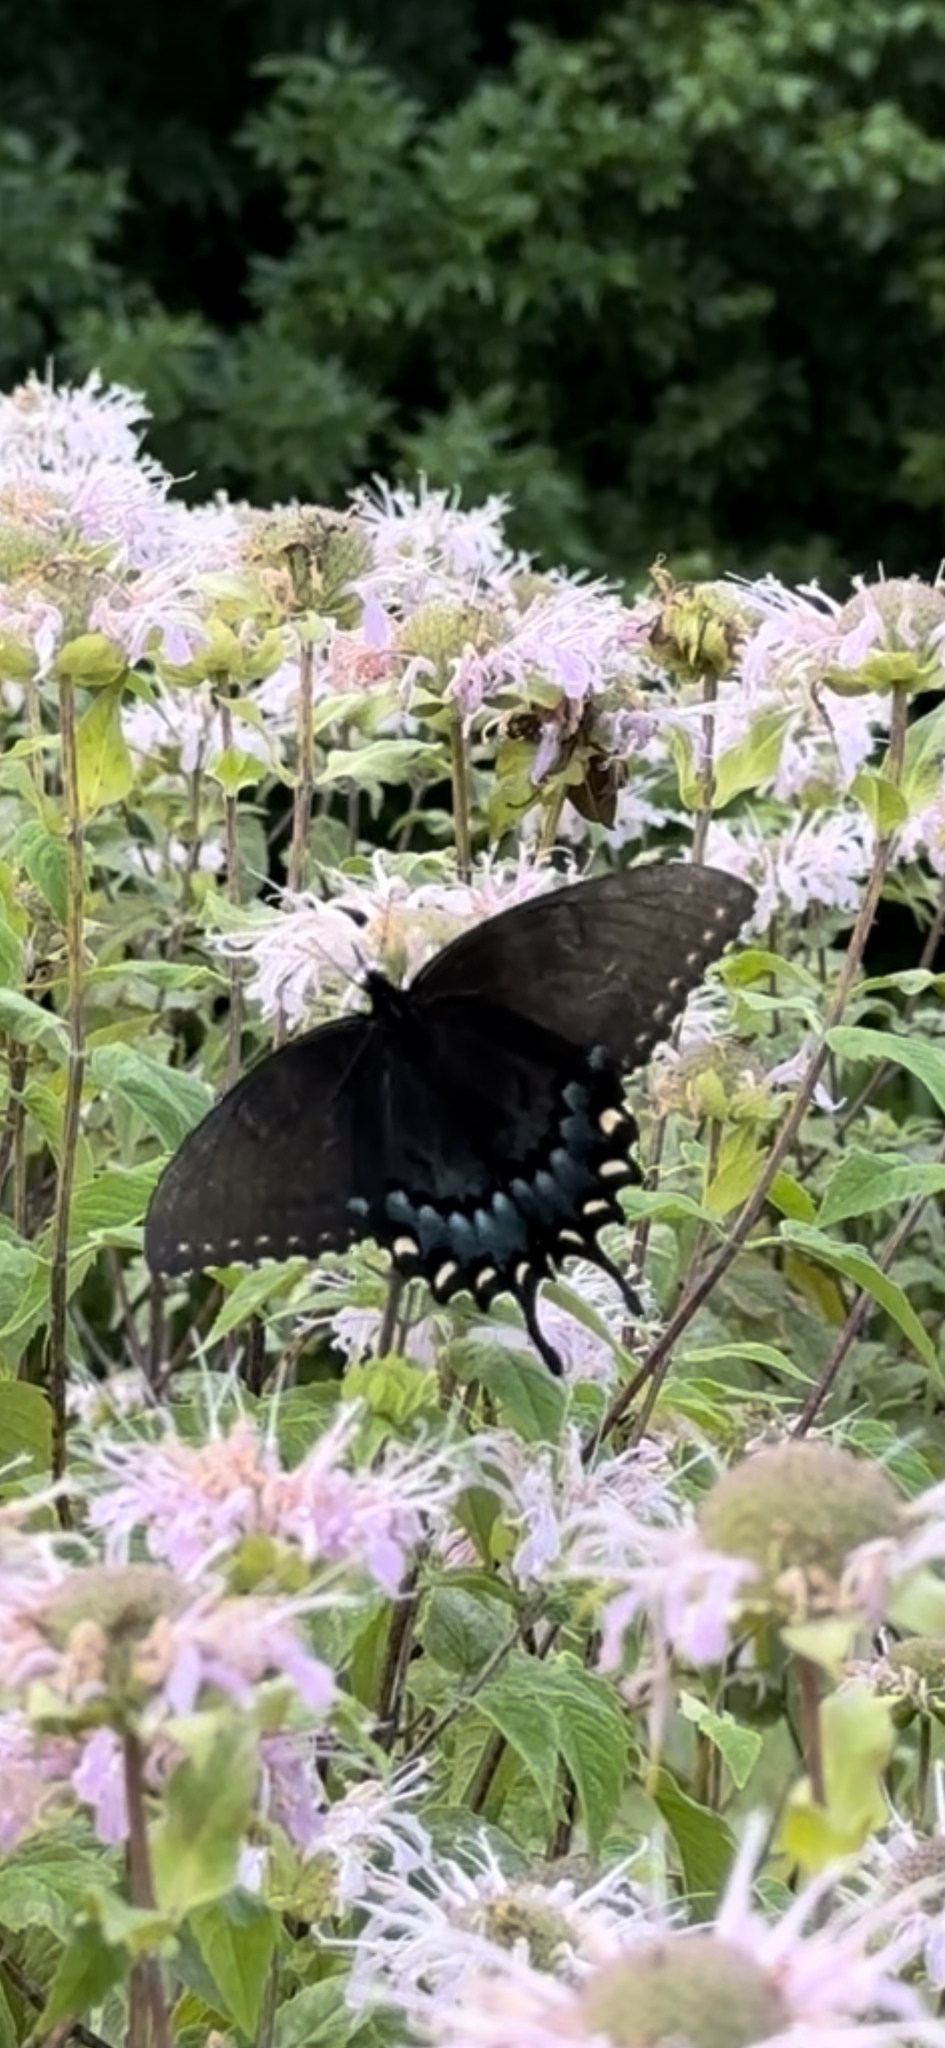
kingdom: Animalia
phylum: Arthropoda
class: Insecta
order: Lepidoptera
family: Papilionidae
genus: Papilio
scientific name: Papilio glaucus
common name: Tiger swallowtail
